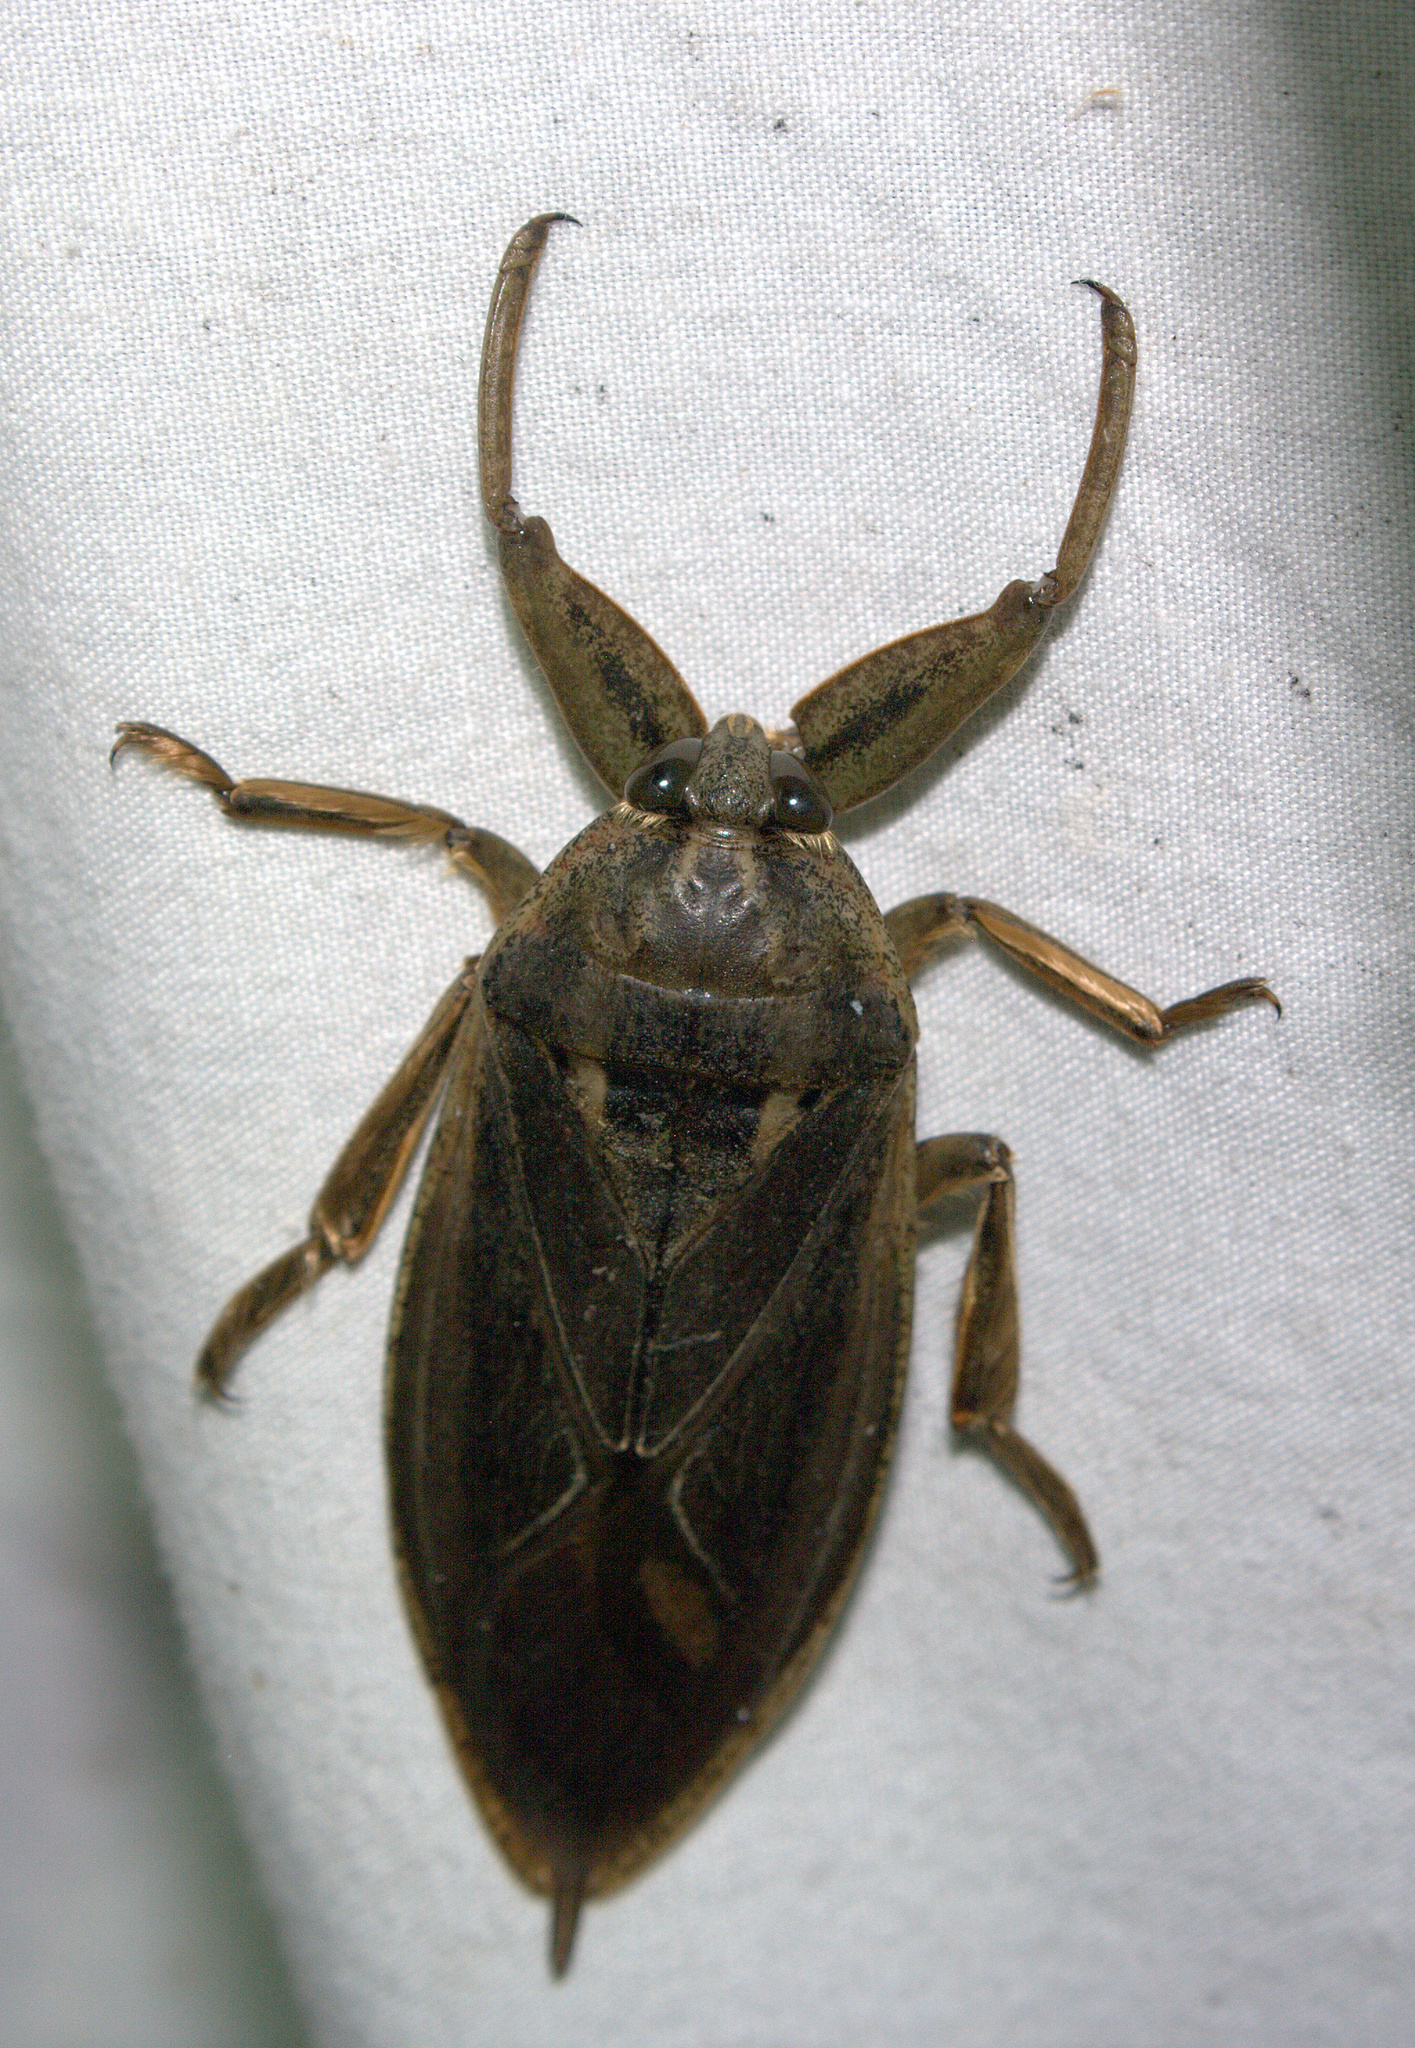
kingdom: Animalia
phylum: Arthropoda
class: Insecta
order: Hemiptera
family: Belostomatidae
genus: Lethocerus
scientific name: Lethocerus americanus
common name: Giant water bug
